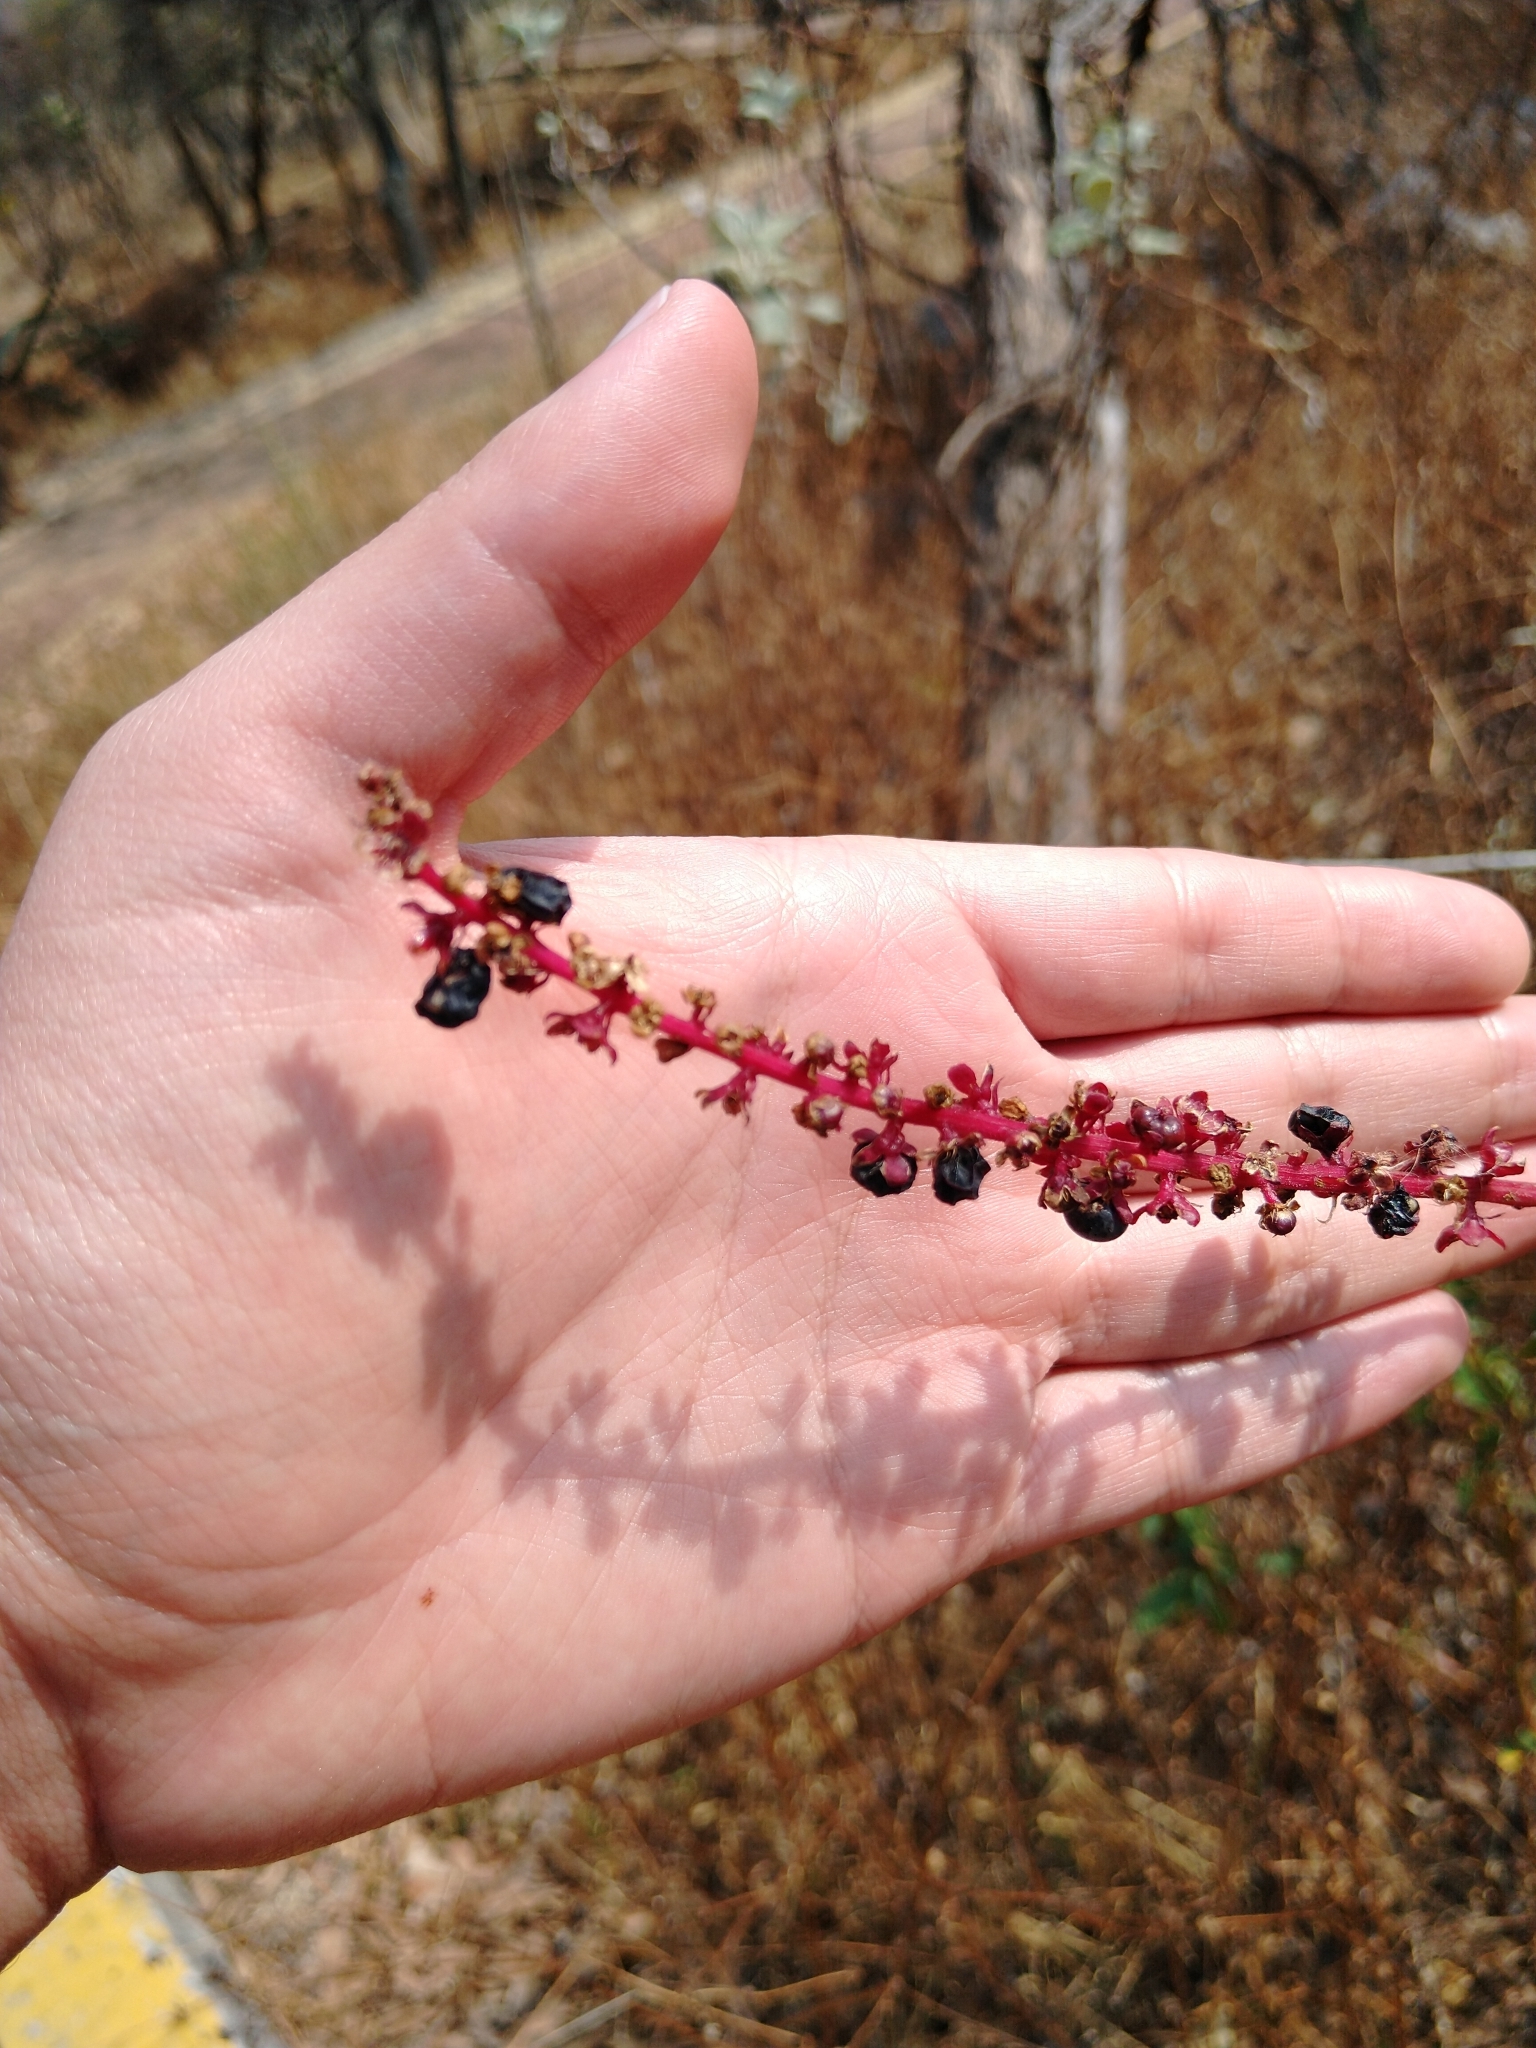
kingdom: Plantae
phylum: Tracheophyta
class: Magnoliopsida
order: Caryophyllales
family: Phytolaccaceae
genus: Phytolacca
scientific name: Phytolacca icosandra
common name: Button pokeweed
